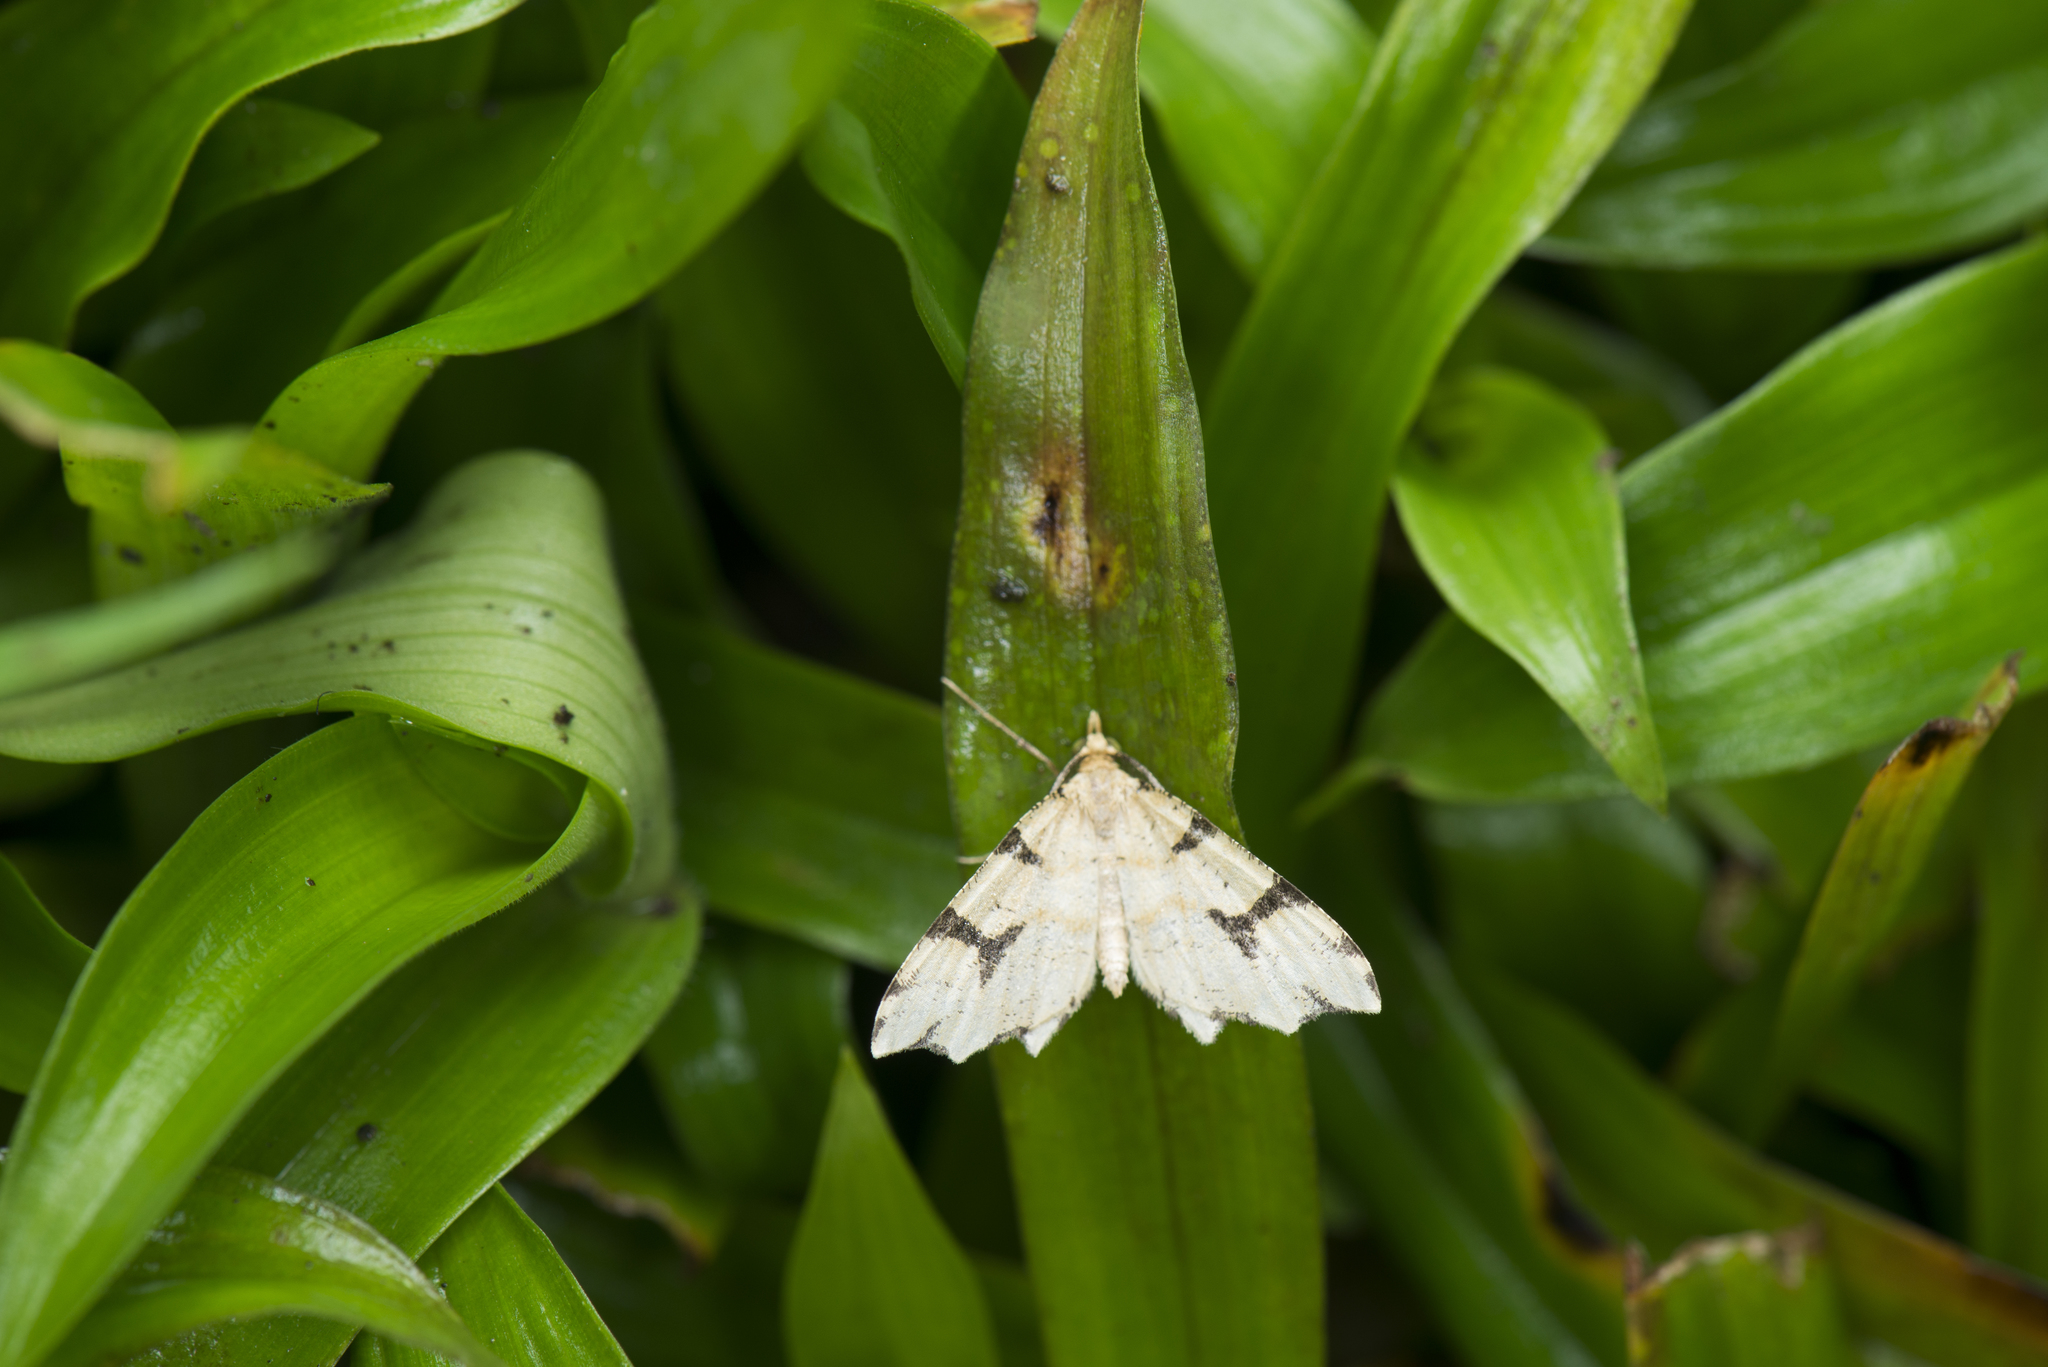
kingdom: Animalia
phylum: Arthropoda
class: Insecta
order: Lepidoptera
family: Geometridae
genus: Lobogonia
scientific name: Lobogonia aculeata
